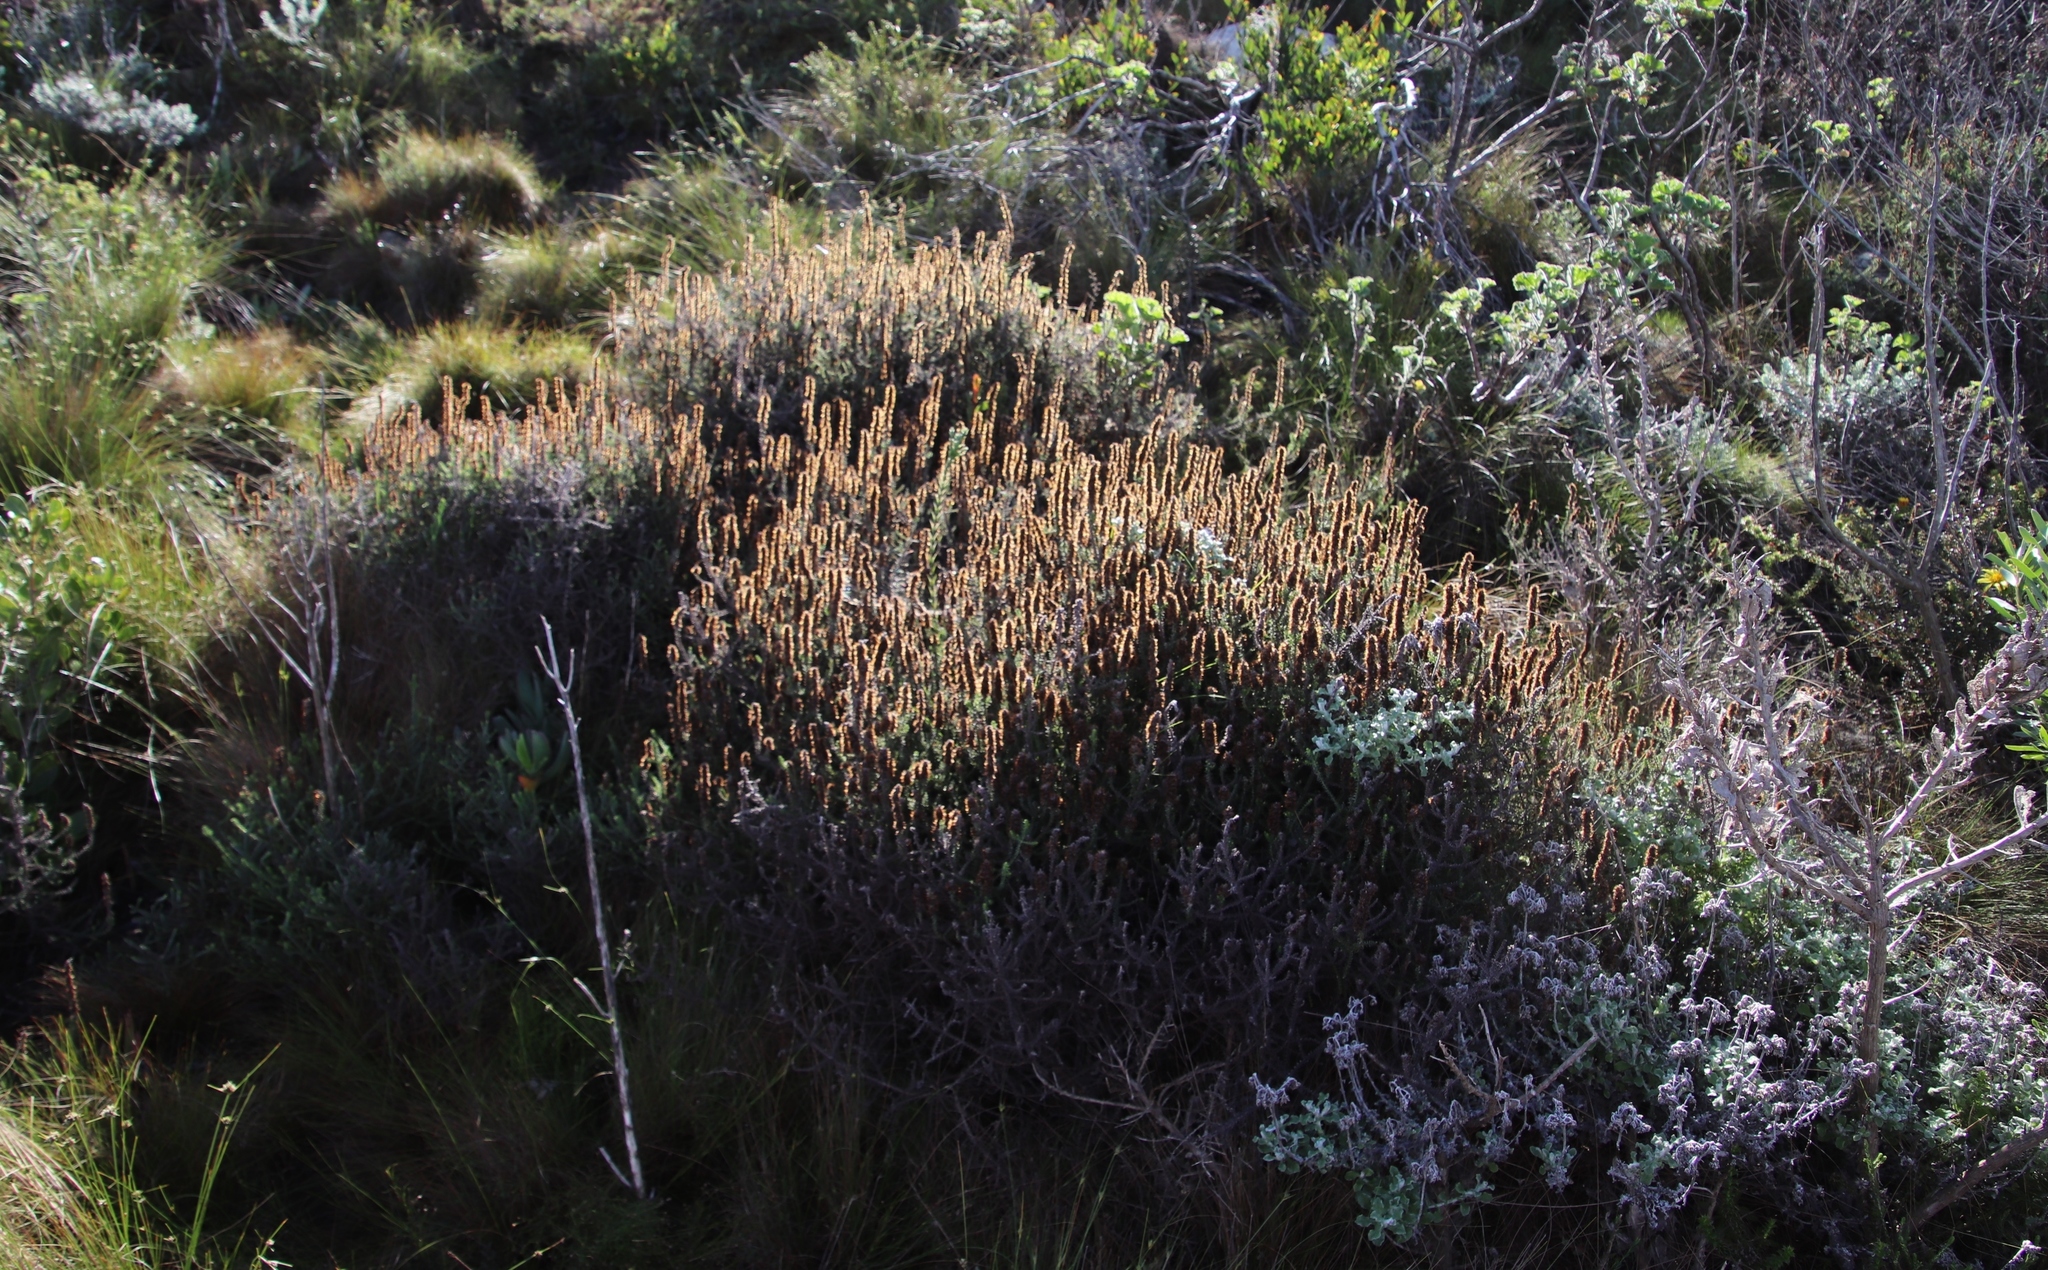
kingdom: Plantae
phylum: Tracheophyta
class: Magnoliopsida
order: Asterales
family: Asteraceae
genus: Seriphium
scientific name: Seriphium cinereum
